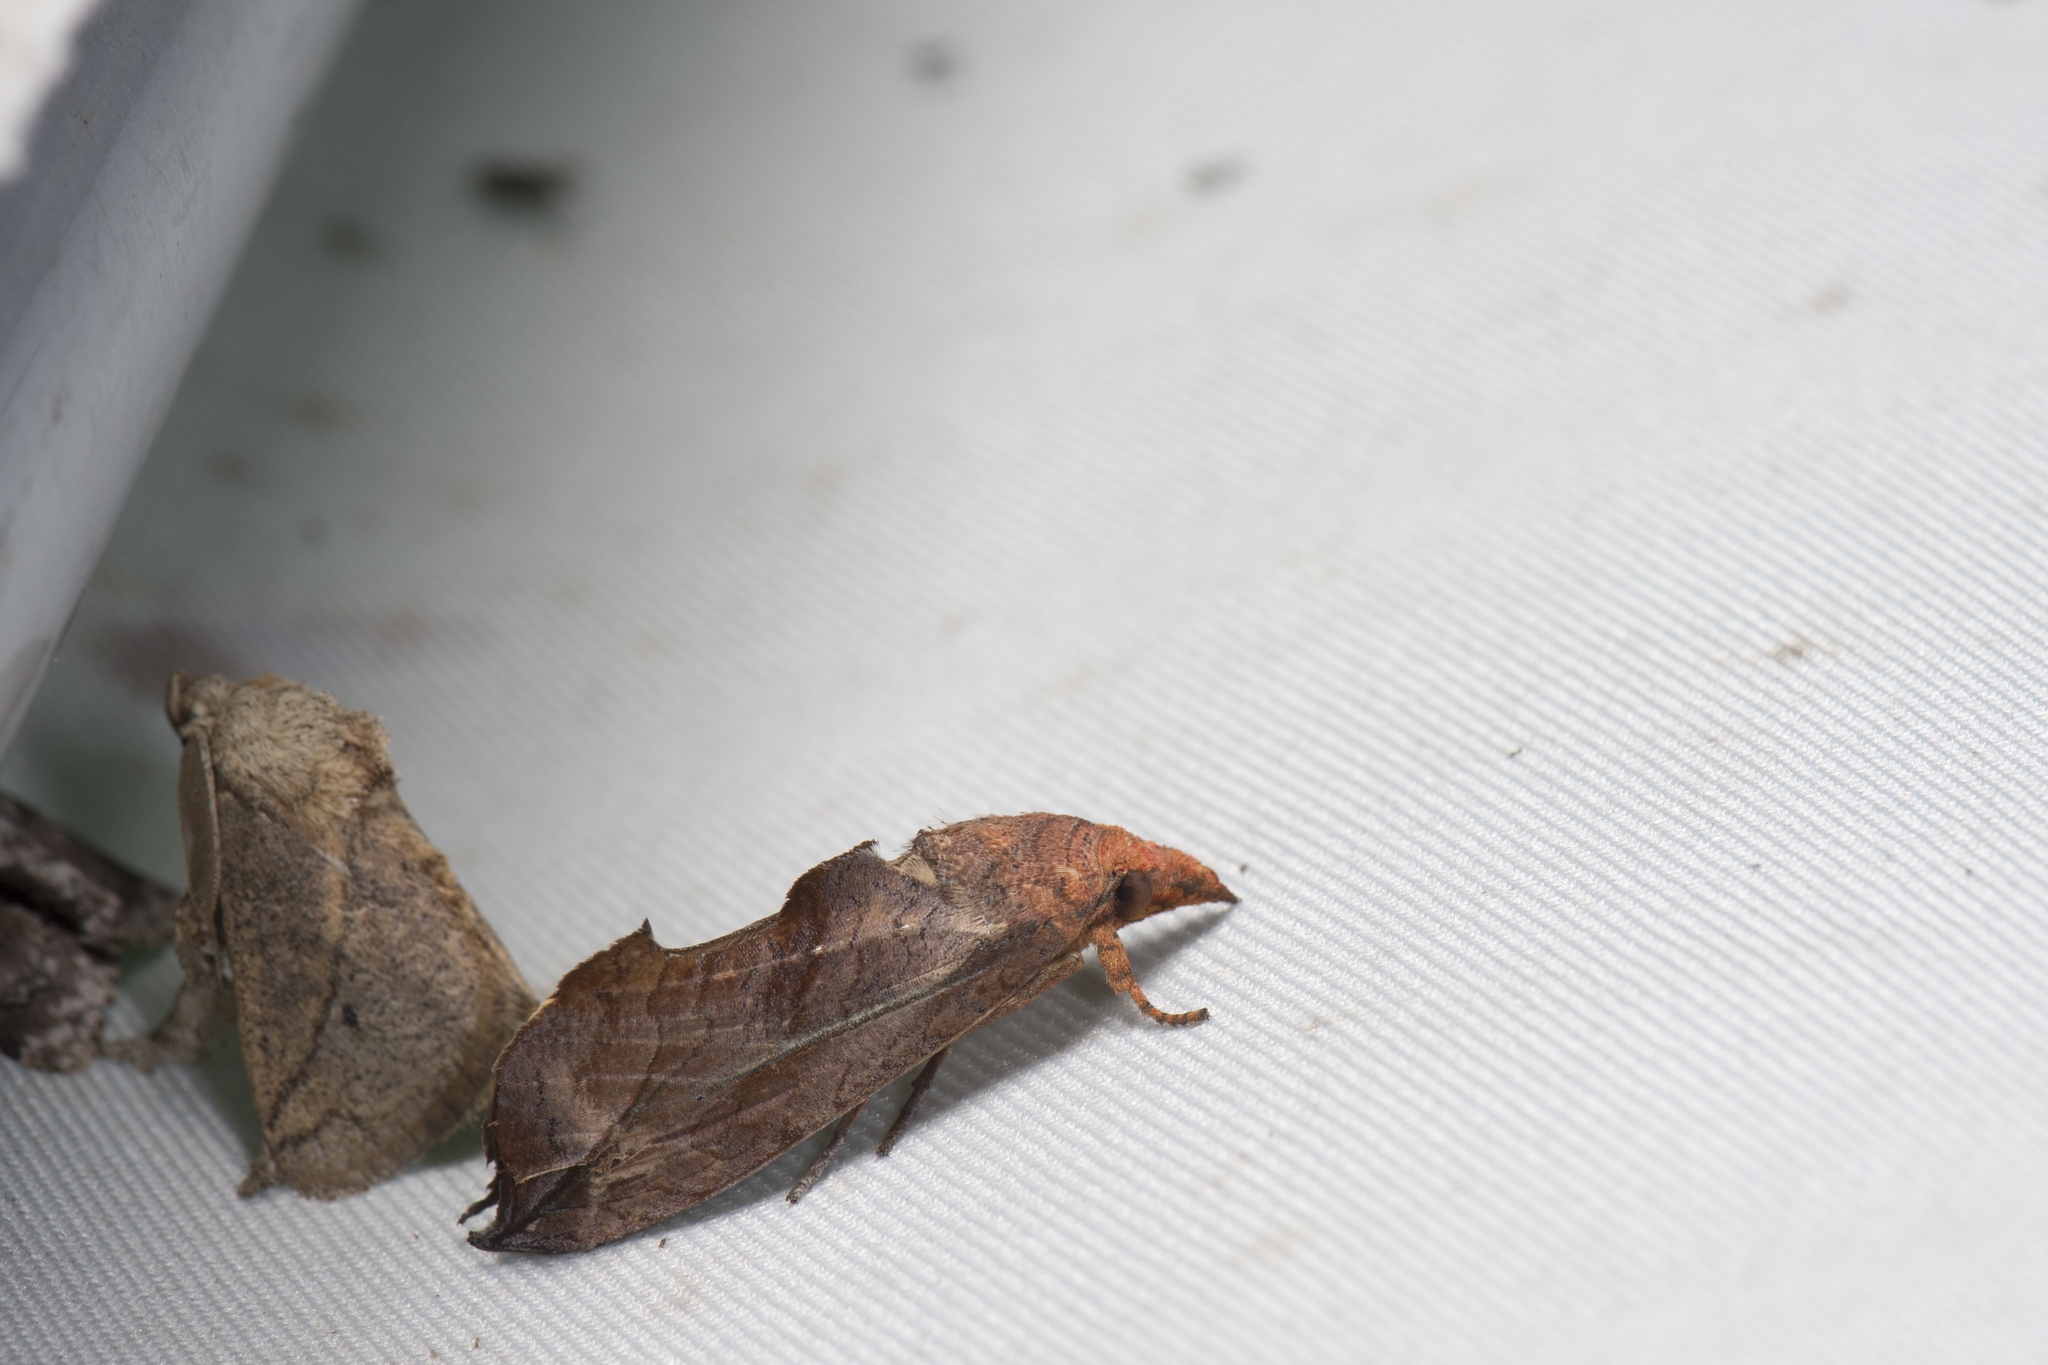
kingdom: Animalia
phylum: Arthropoda
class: Insecta
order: Lepidoptera
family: Erebidae
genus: Oraesia
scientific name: Oraesia excavata
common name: Moth
